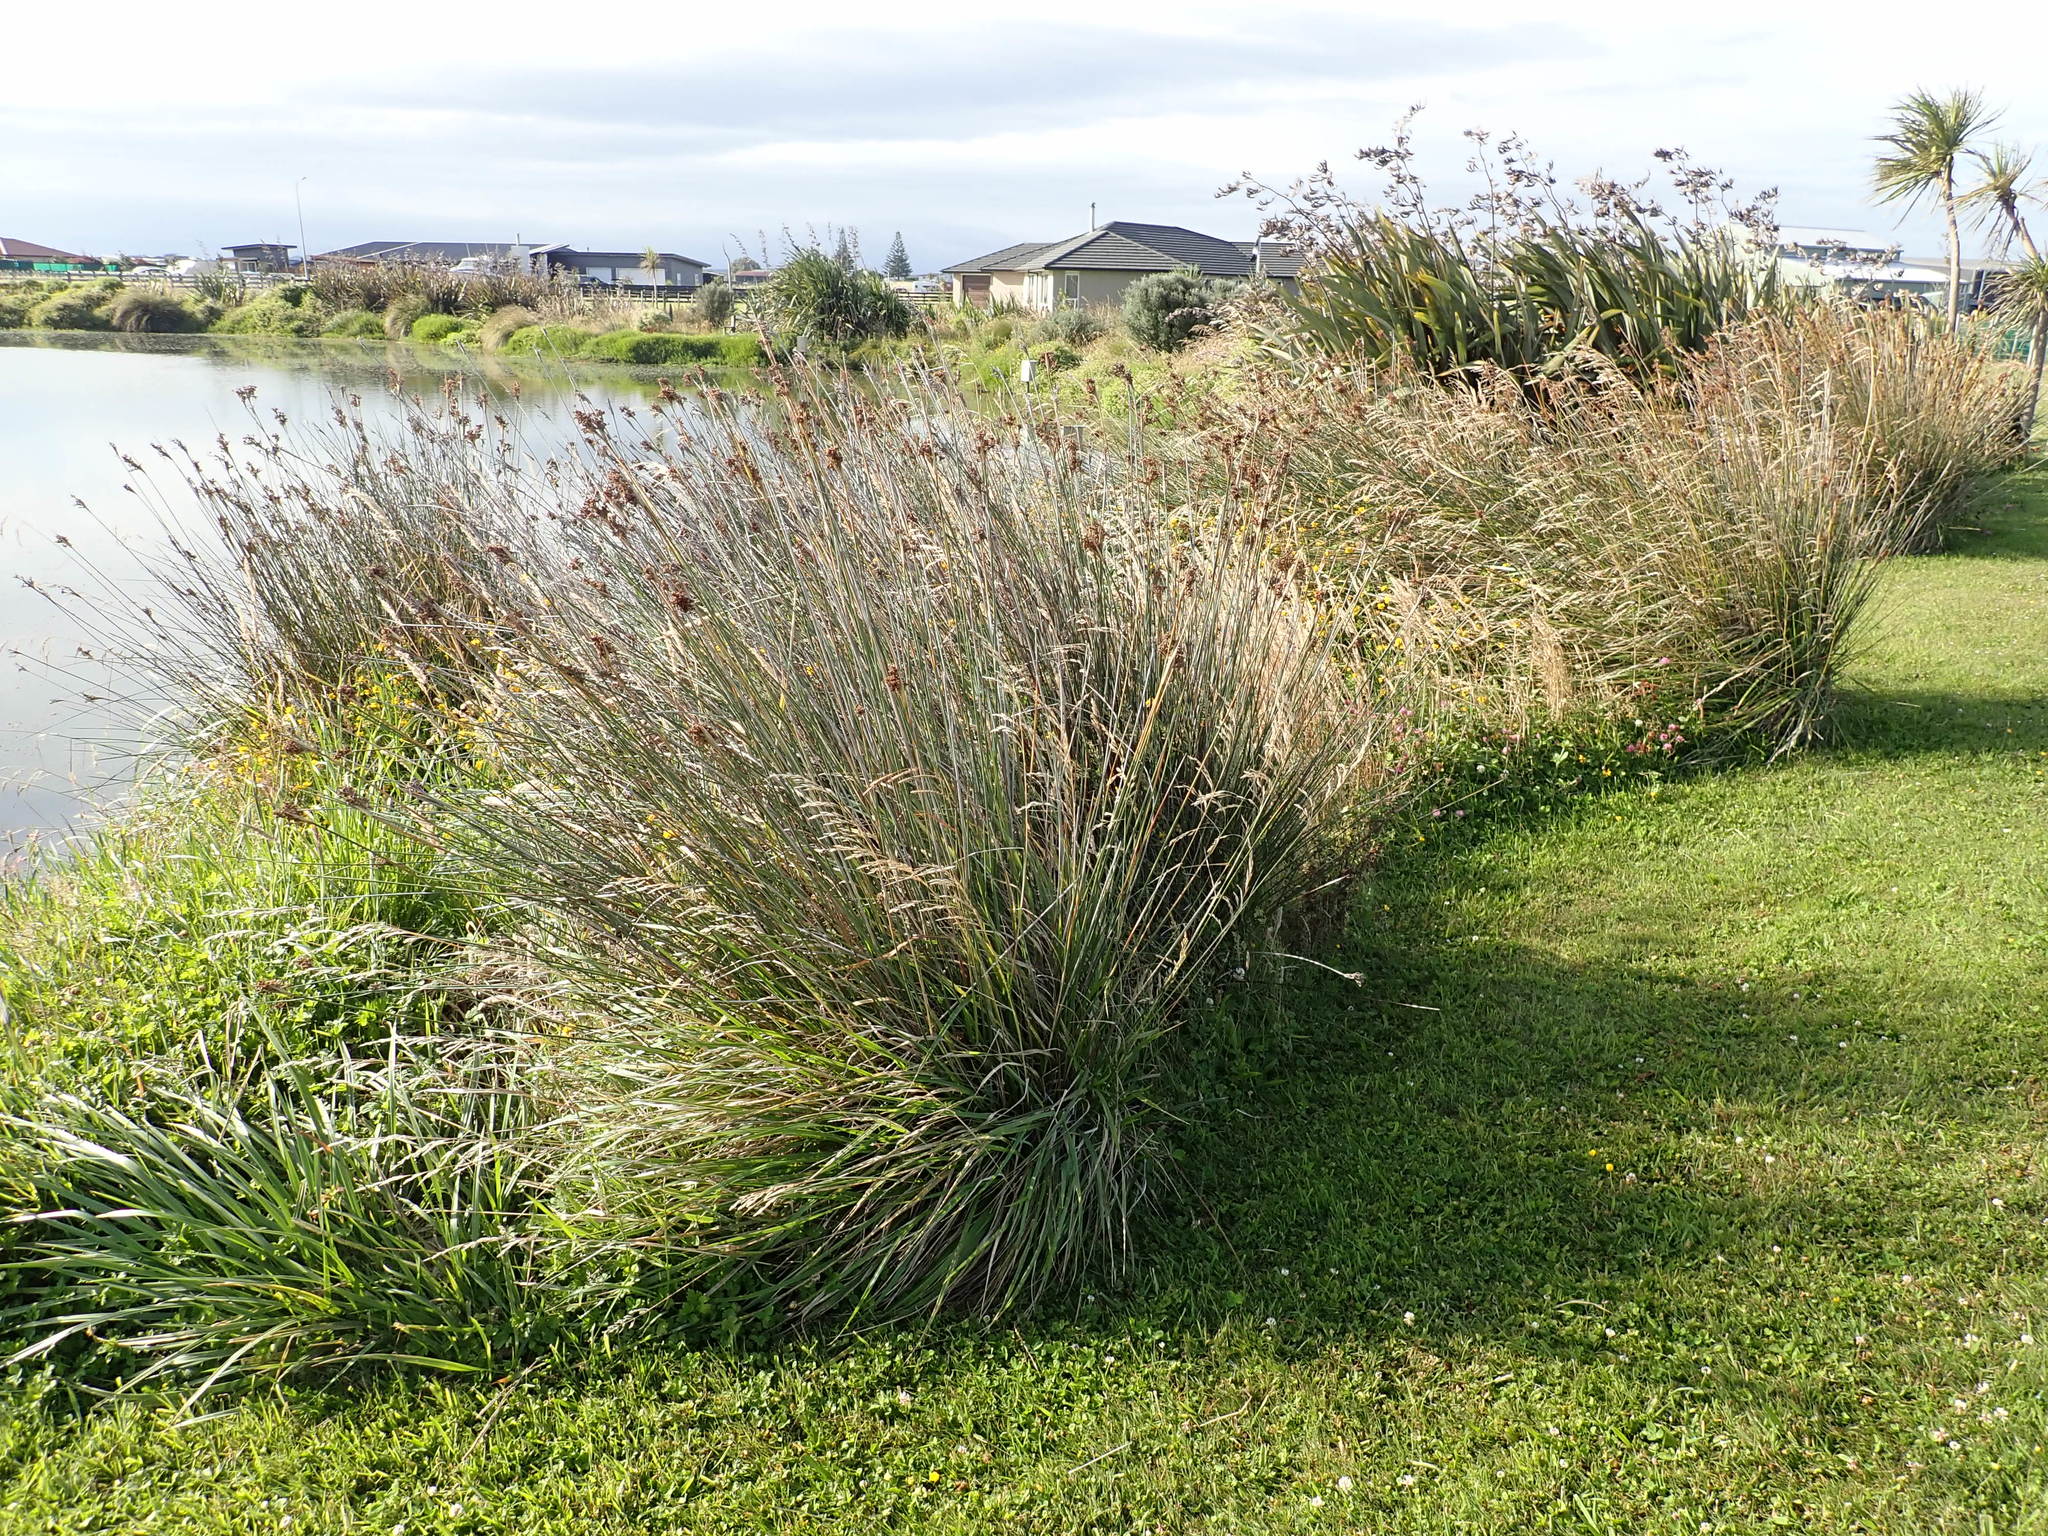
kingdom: Plantae
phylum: Tracheophyta
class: Liliopsida
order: Poales
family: Juncaceae
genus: Juncus
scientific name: Juncus acutus
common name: Sharp rush
